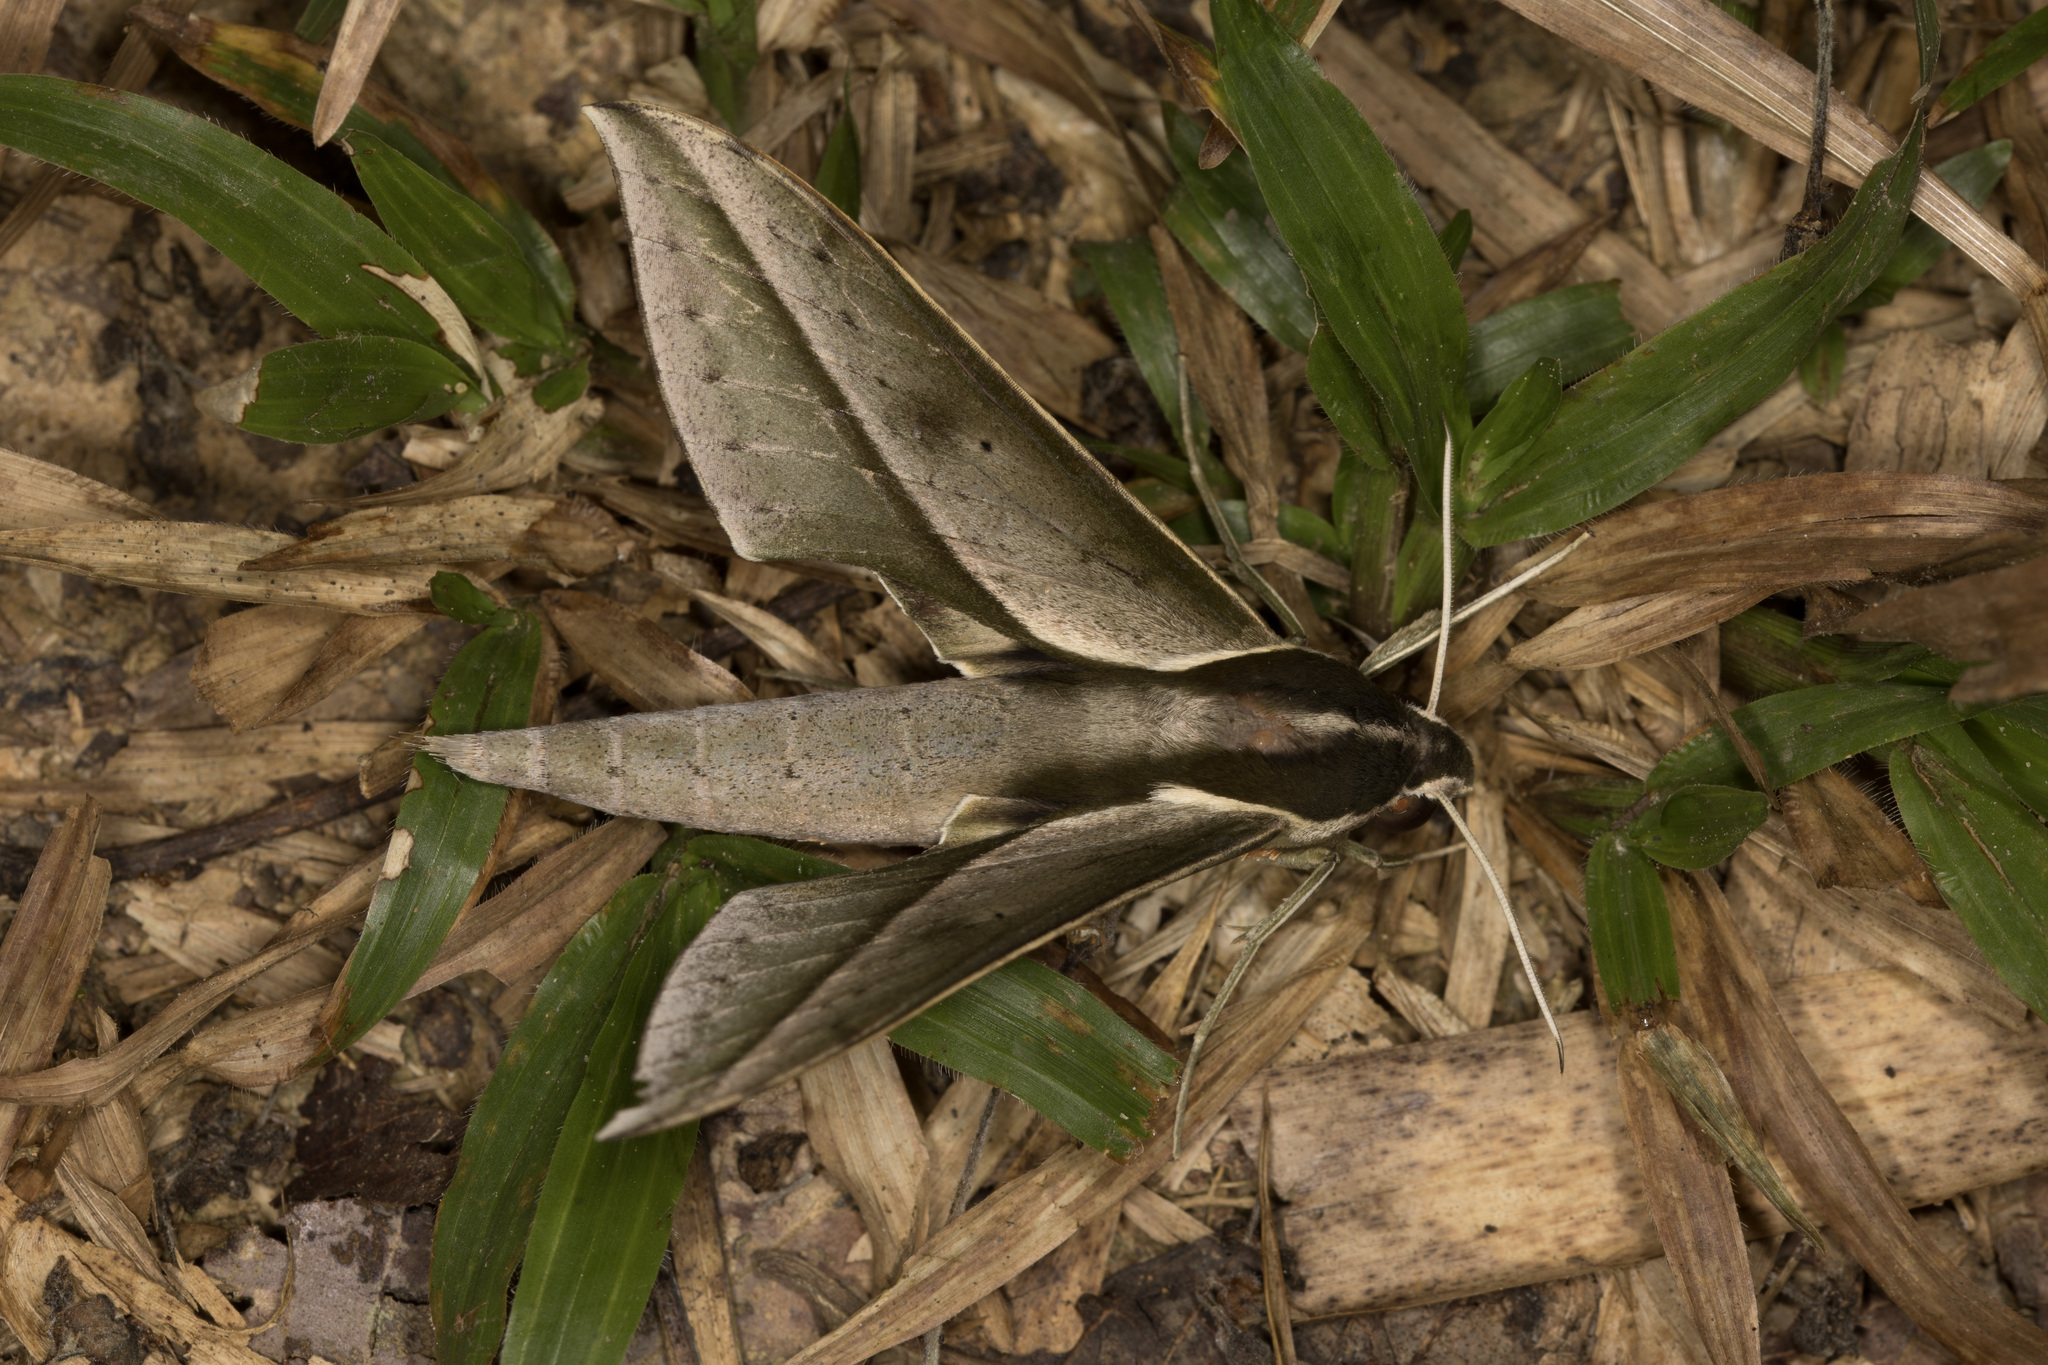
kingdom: Animalia
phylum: Arthropoda
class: Insecta
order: Lepidoptera
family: Sphingidae
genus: Xylophanes
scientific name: Xylophanes amadis
